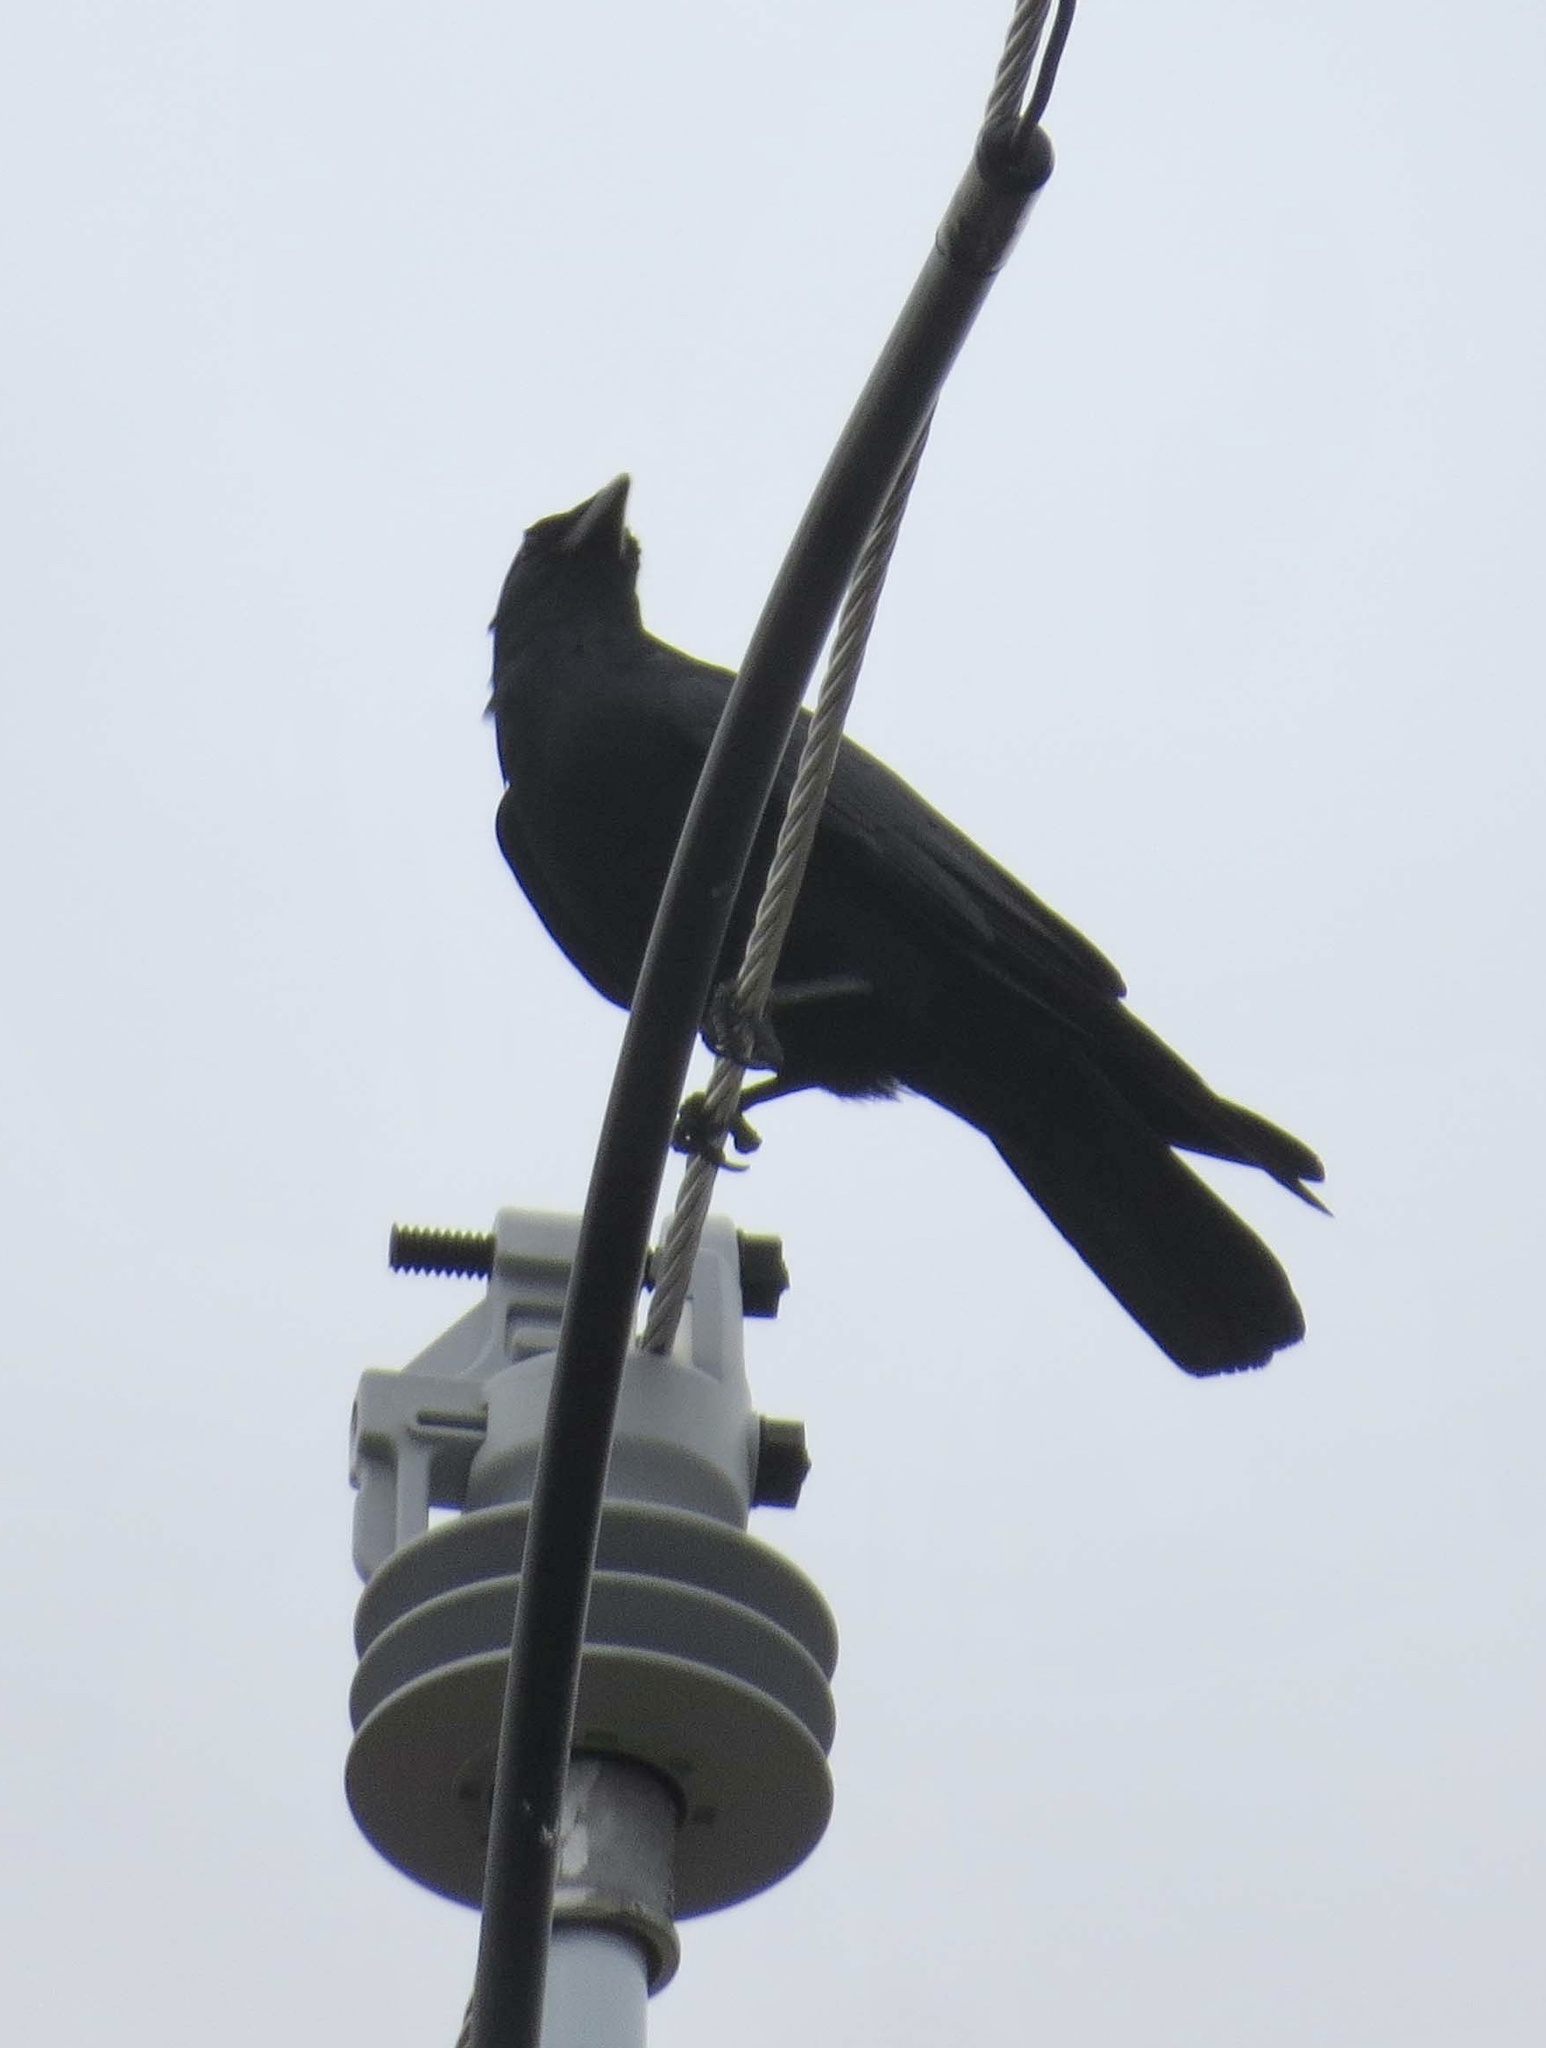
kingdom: Animalia
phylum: Chordata
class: Aves
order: Passeriformes
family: Corvidae
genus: Corvus
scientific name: Corvus ossifragus
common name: Fish crow
